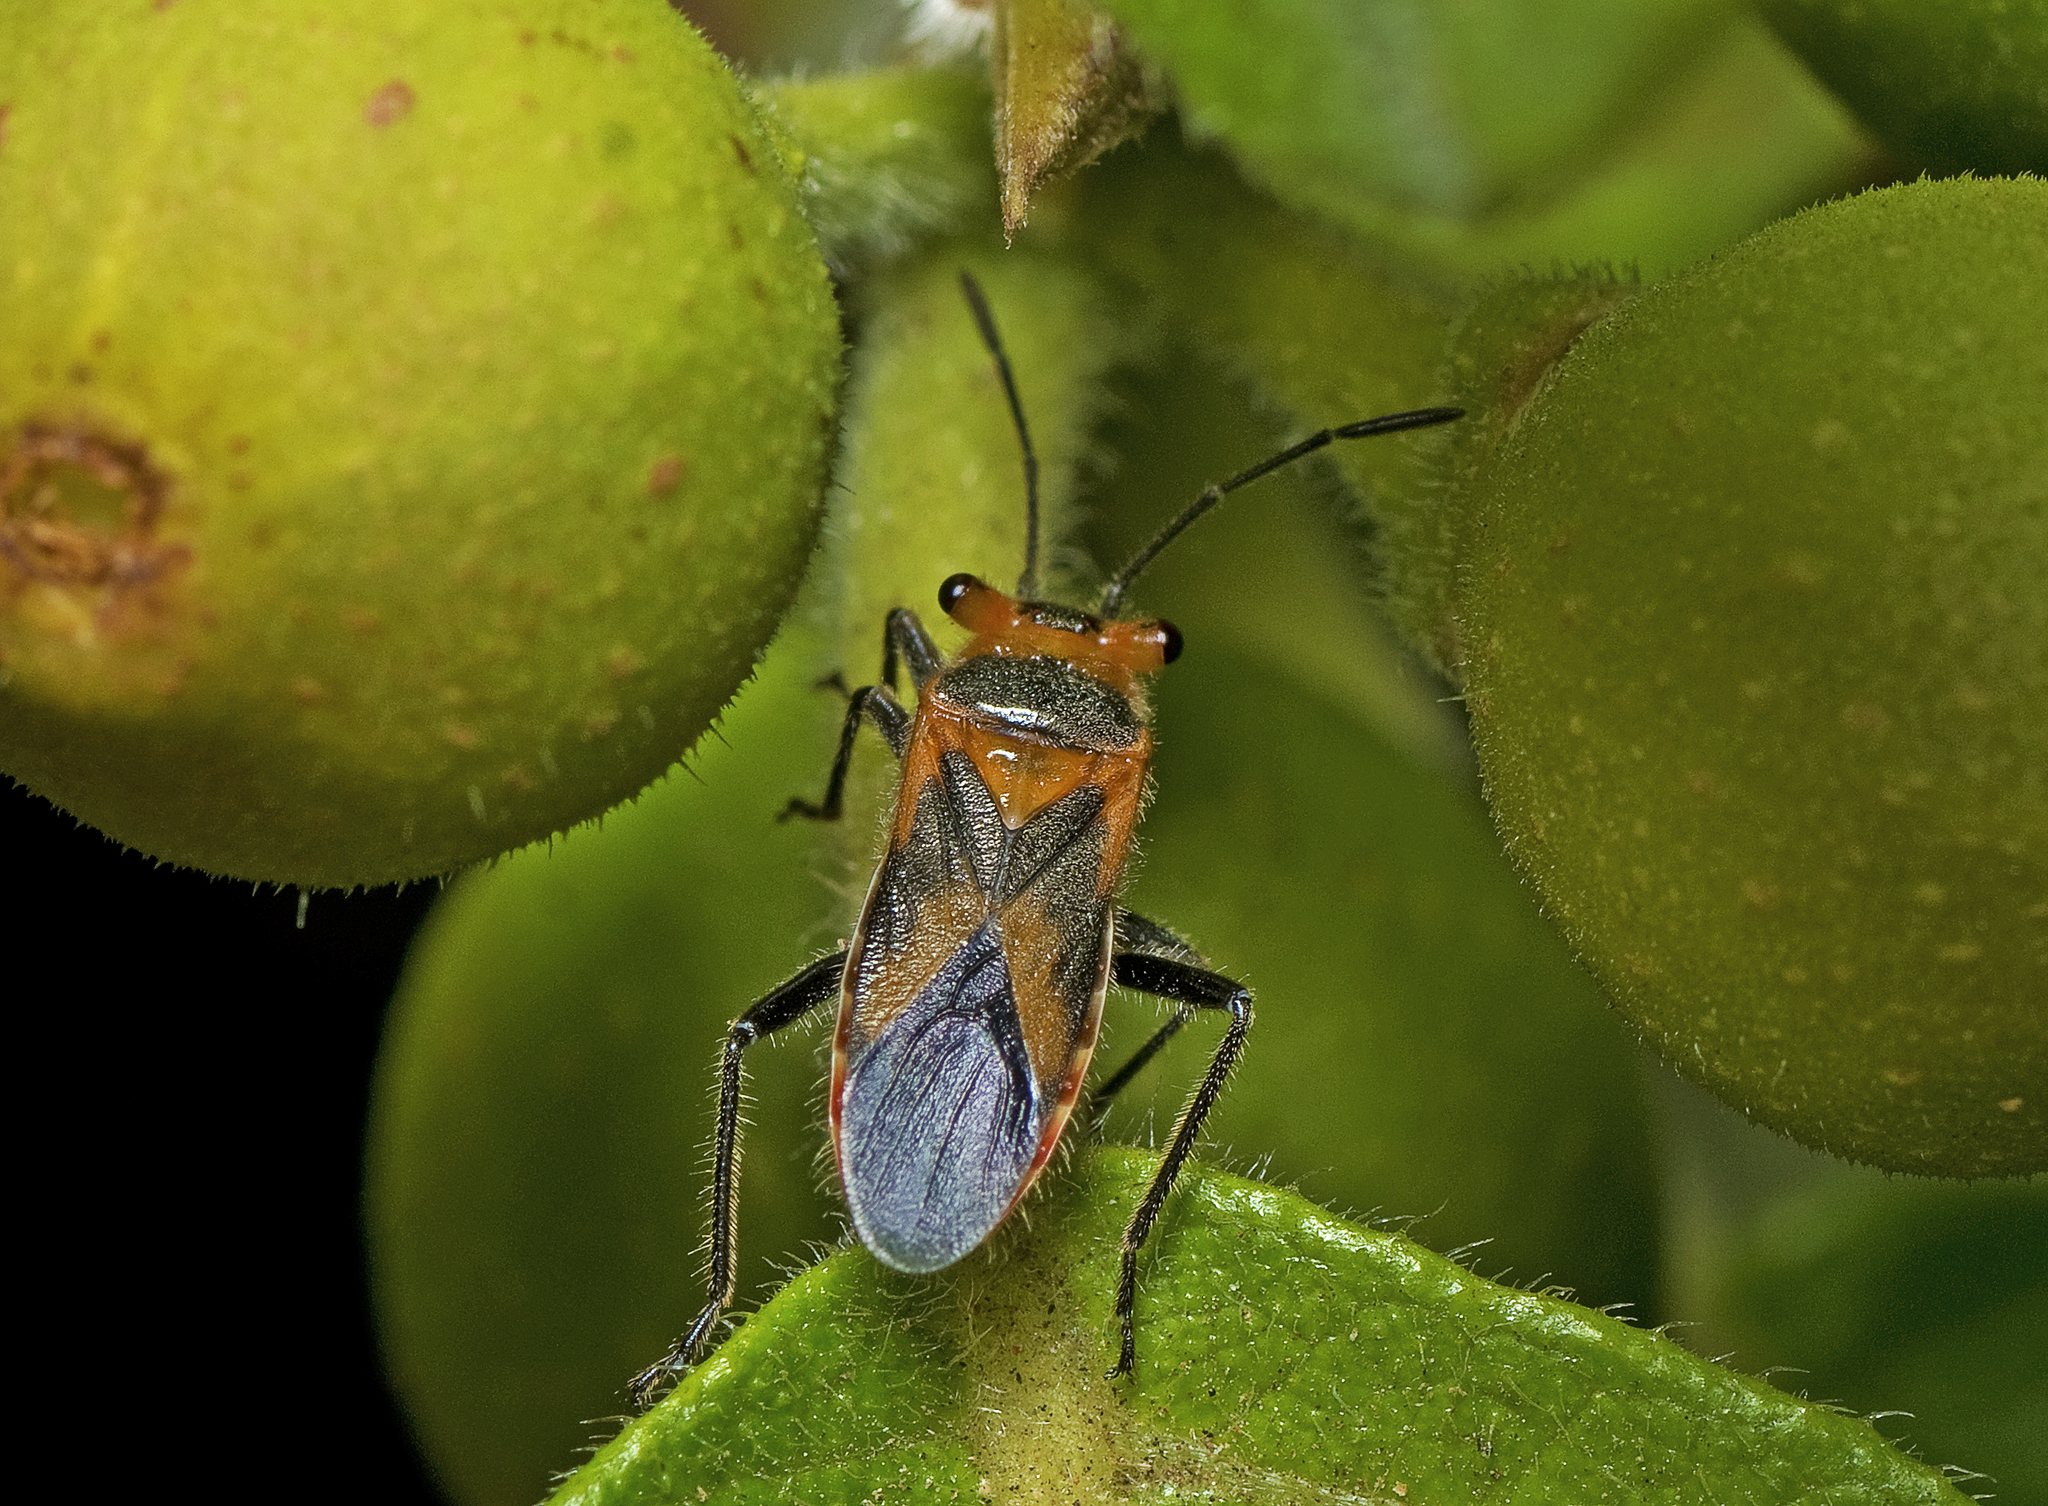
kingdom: Animalia
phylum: Arthropoda
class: Insecta
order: Hemiptera
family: Lygaeidae
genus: Scopiastes
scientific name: Scopiastes obliquus
